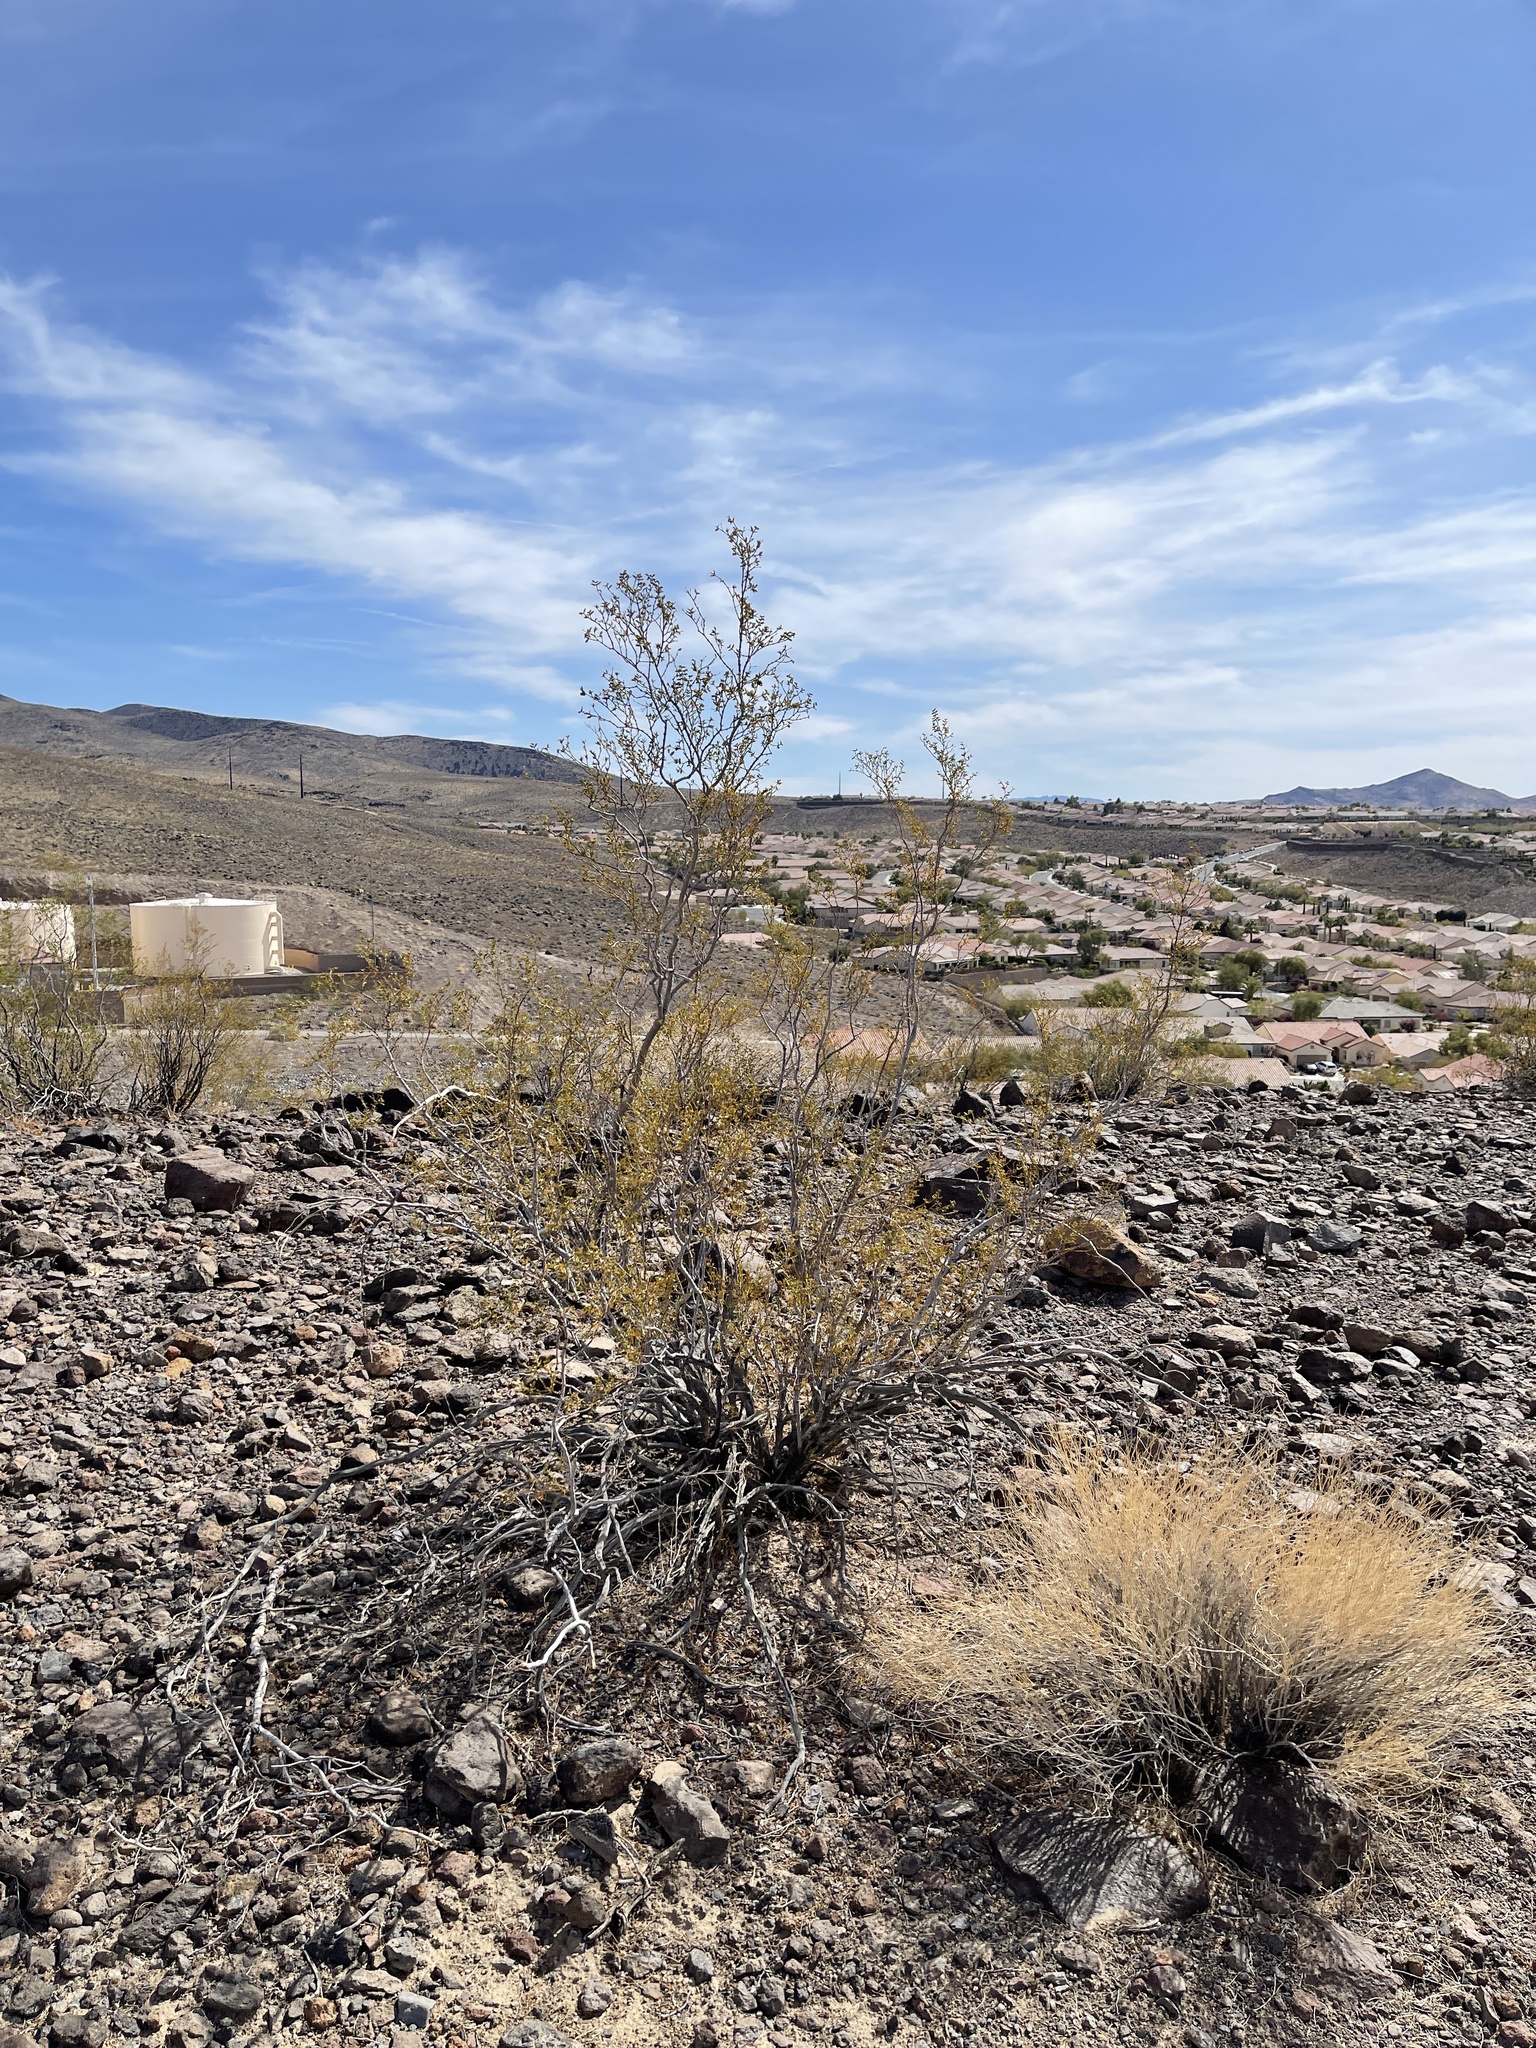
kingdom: Plantae
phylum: Tracheophyta
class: Magnoliopsida
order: Zygophyllales
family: Zygophyllaceae
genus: Larrea
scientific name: Larrea tridentata
